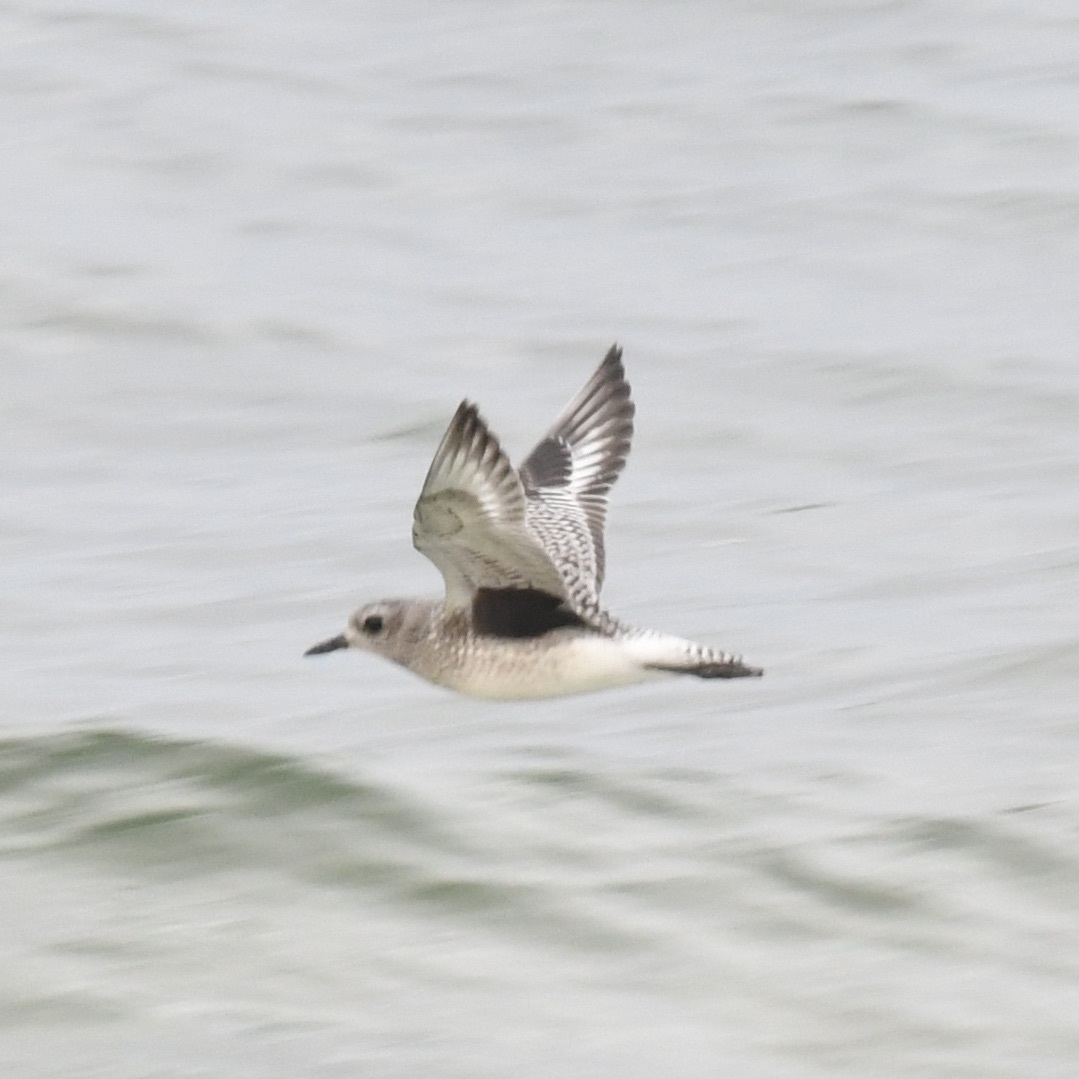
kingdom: Animalia
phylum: Chordata
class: Aves
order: Charadriiformes
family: Charadriidae
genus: Pluvialis
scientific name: Pluvialis squatarola
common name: Grey plover
